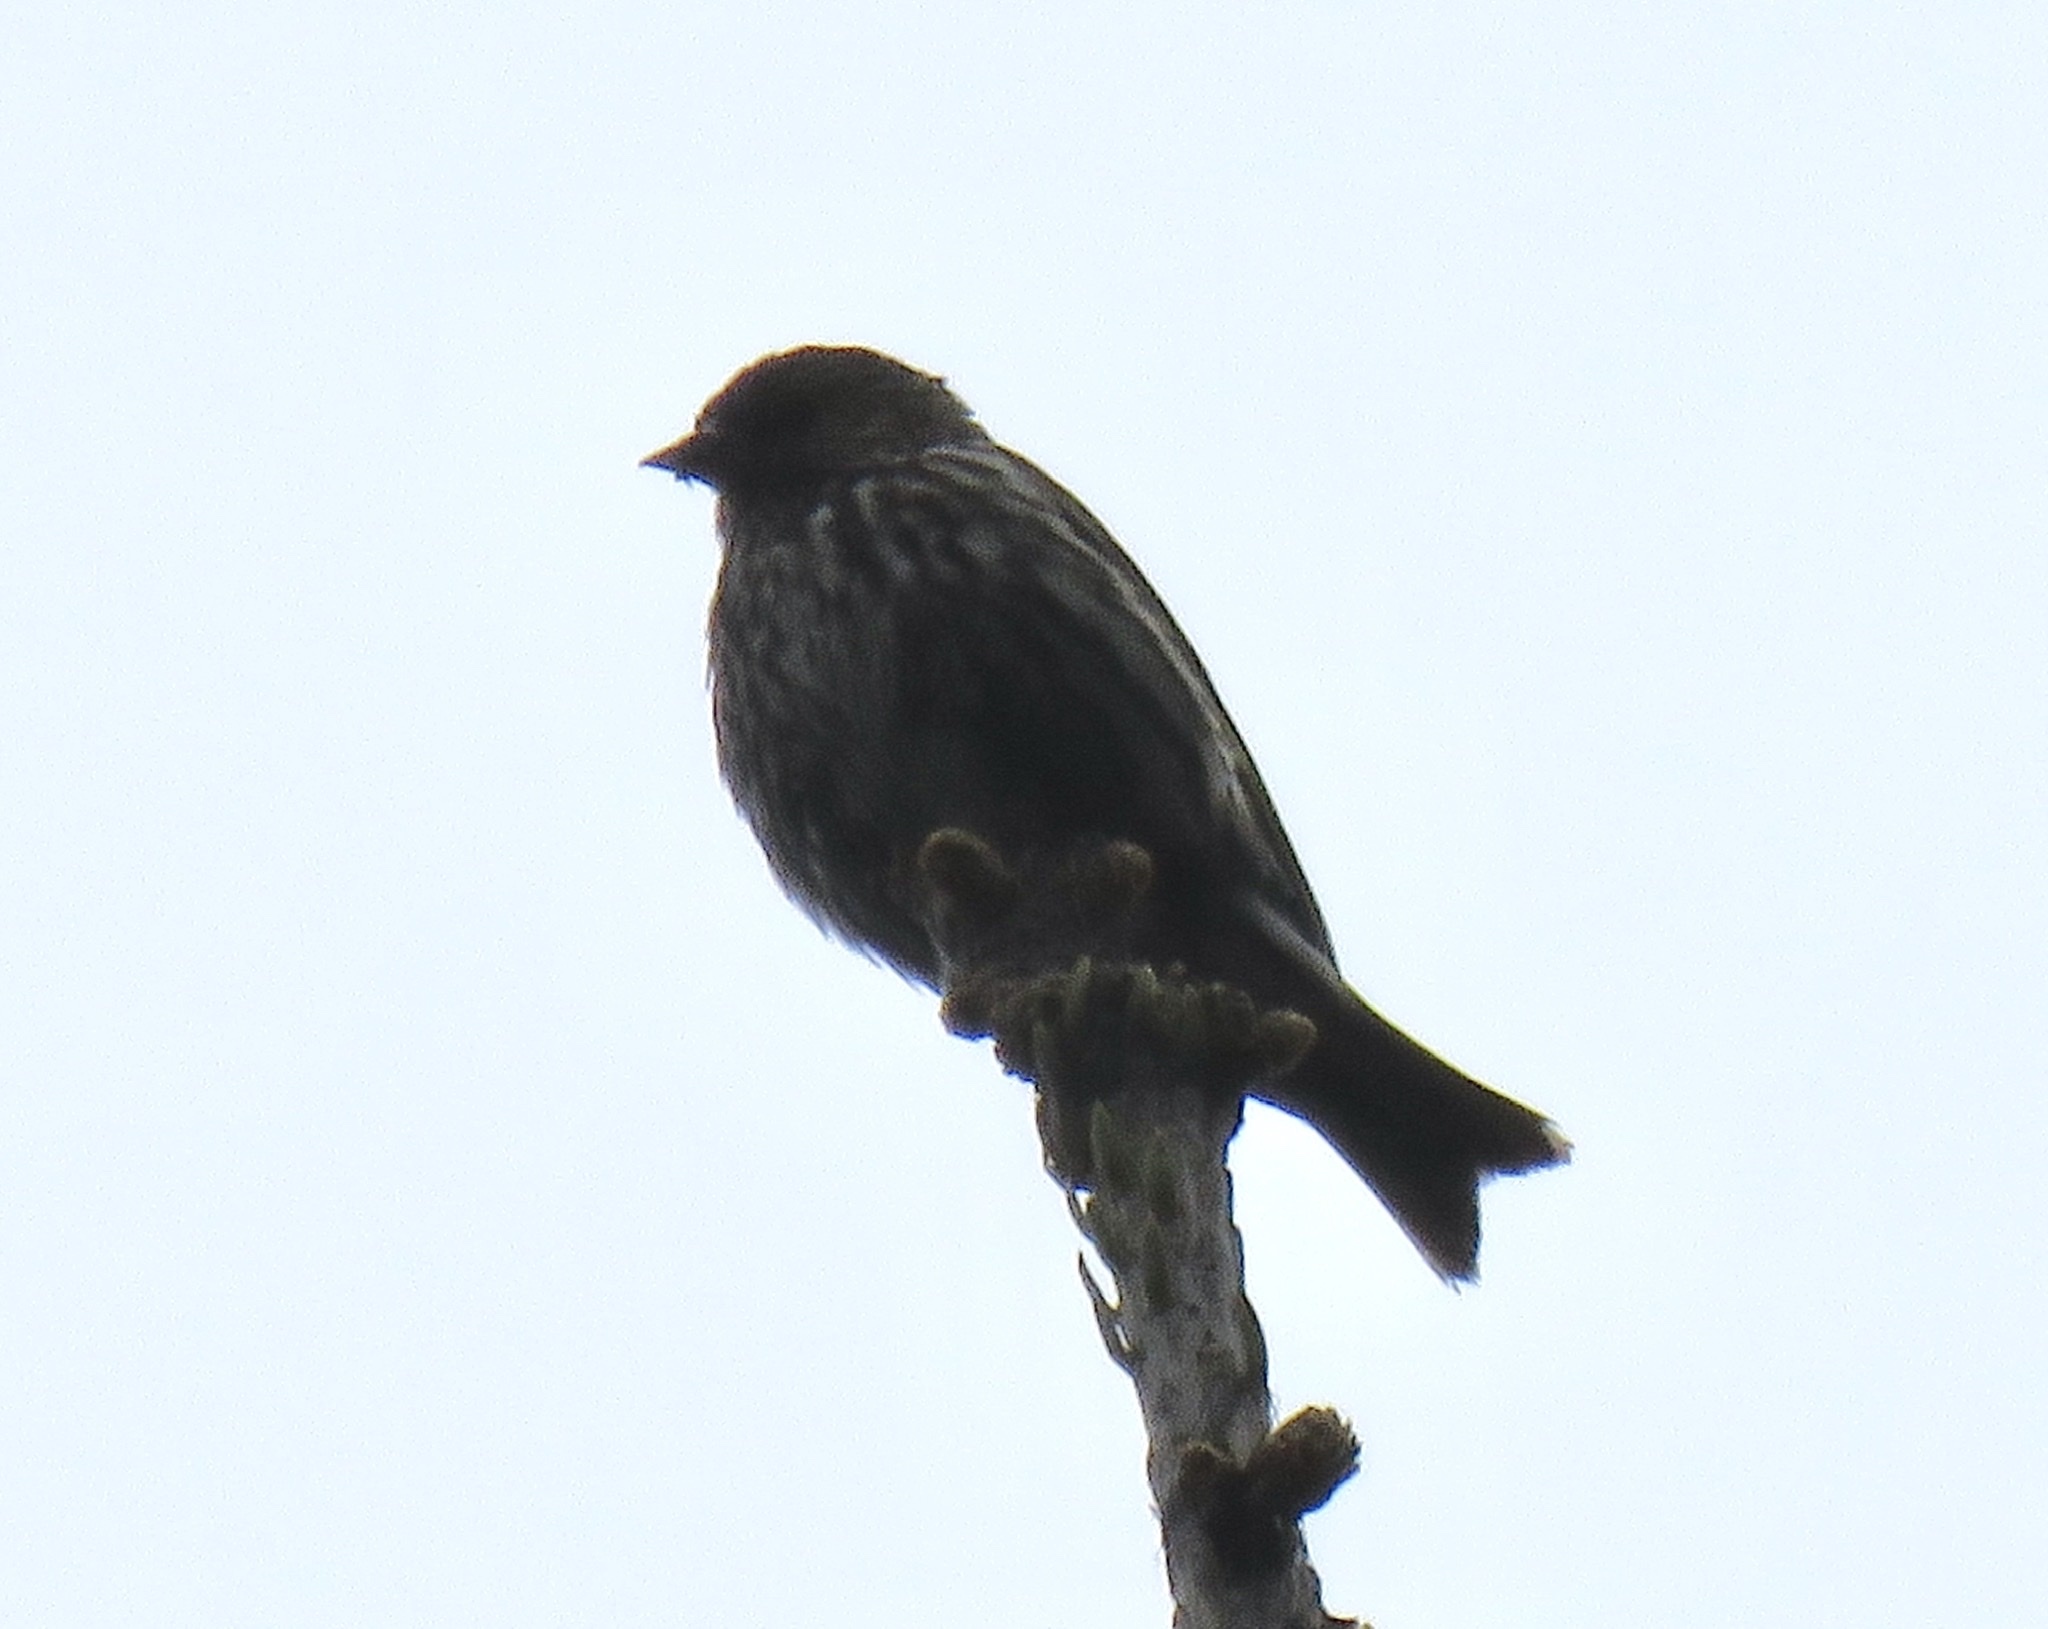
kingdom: Animalia
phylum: Chordata
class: Aves
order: Passeriformes
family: Fringillidae
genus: Spinus
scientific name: Spinus pinus
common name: Pine siskin
